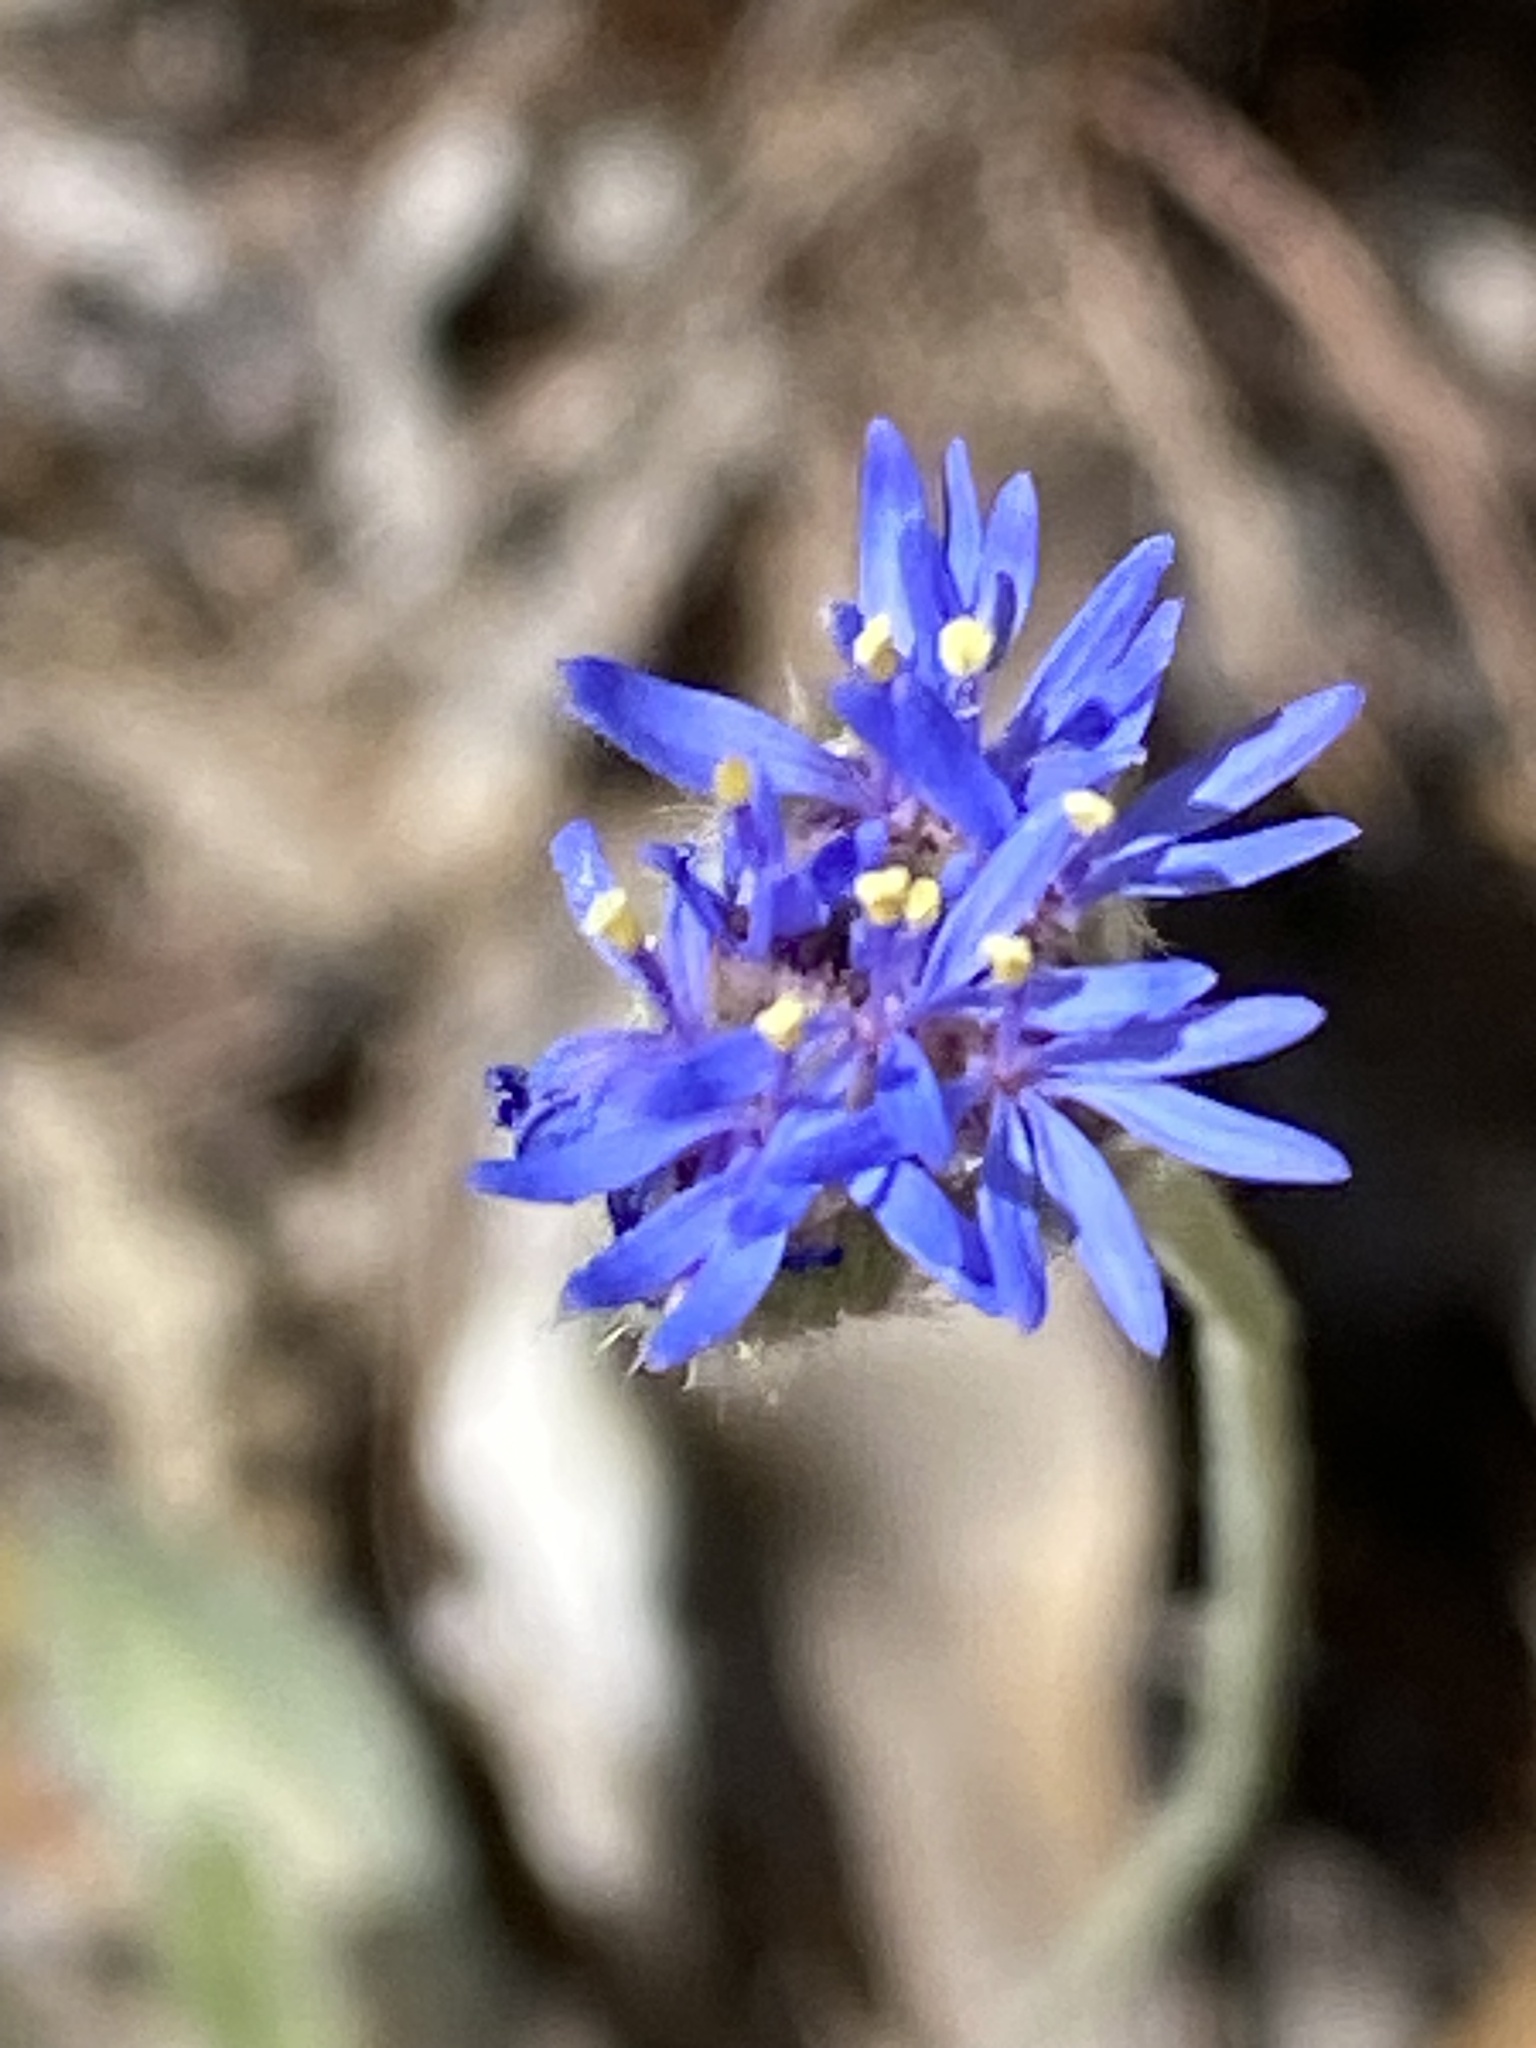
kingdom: Plantae
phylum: Tracheophyta
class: Magnoliopsida
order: Asterales
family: Goodeniaceae
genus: Brunonia
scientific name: Brunonia australis
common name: Blue pincushion
